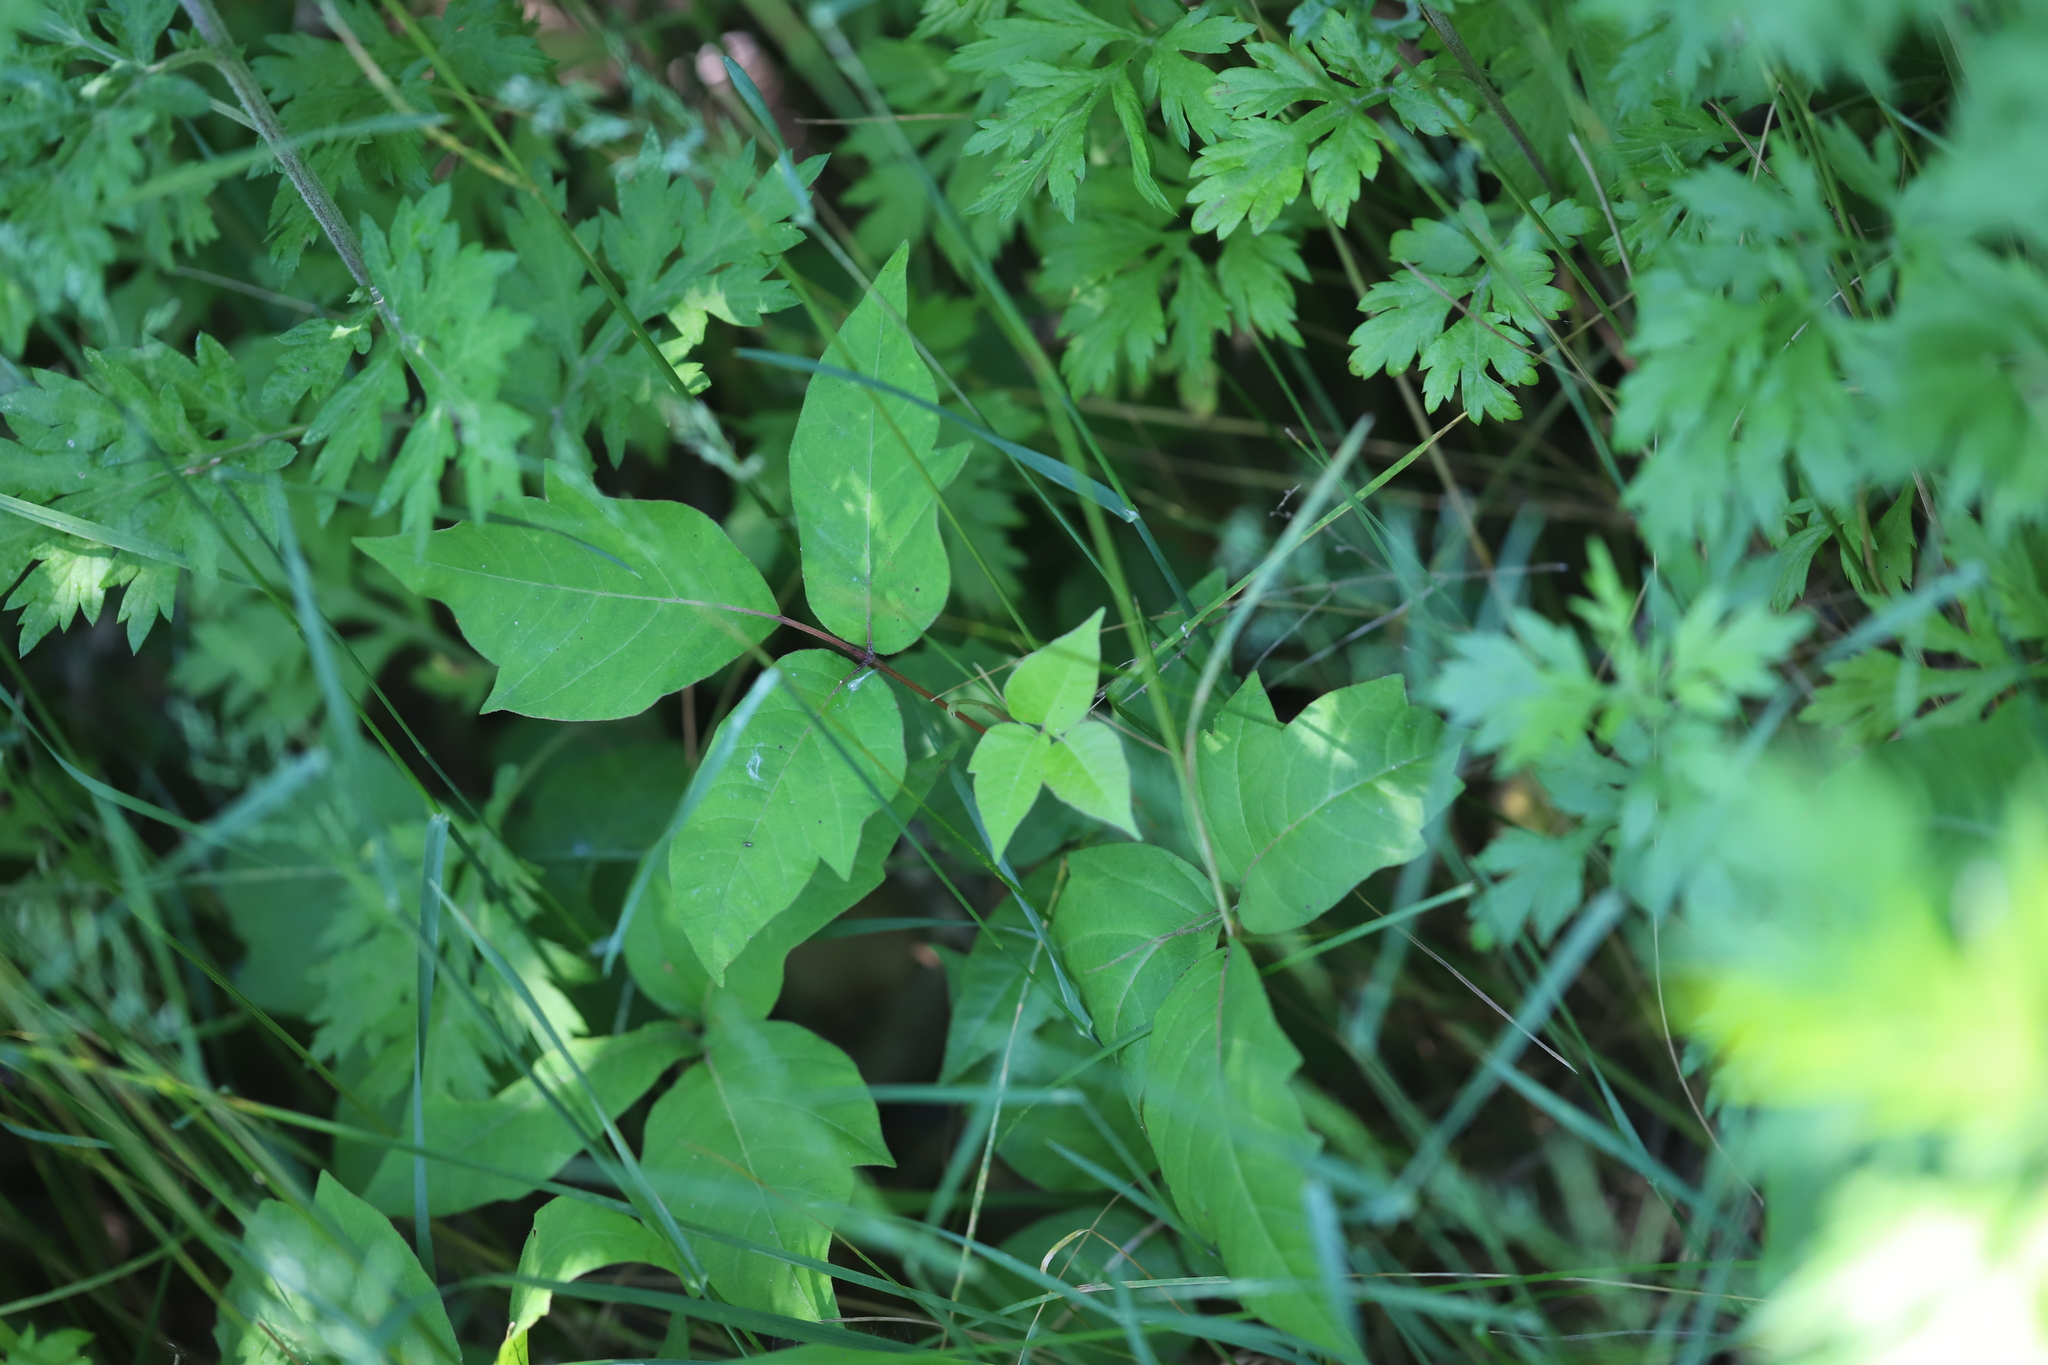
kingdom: Plantae
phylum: Tracheophyta
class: Magnoliopsida
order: Asterales
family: Asteraceae
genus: Artemisia
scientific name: Artemisia vulgaris
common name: Mugwort
